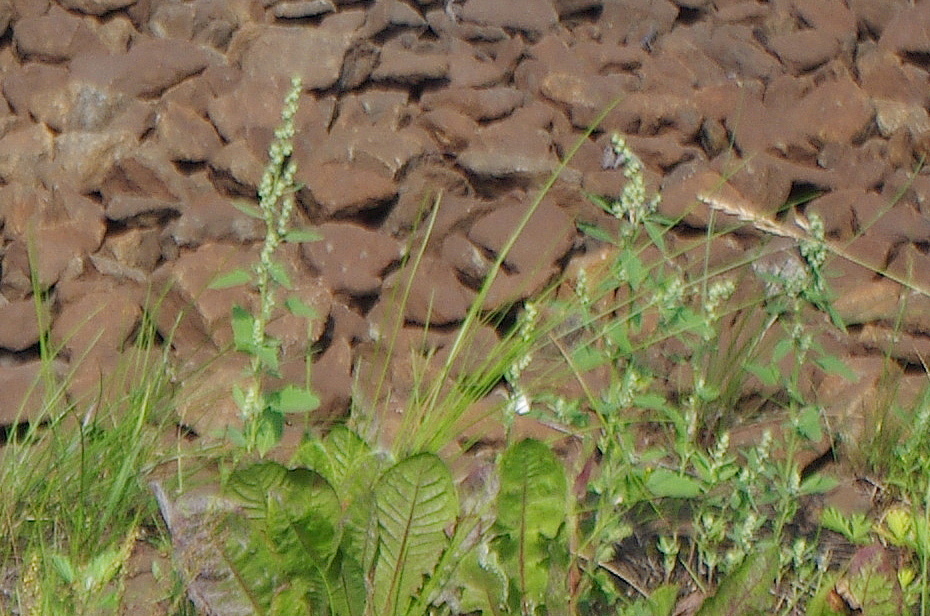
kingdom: Plantae
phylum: Tracheophyta
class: Magnoliopsida
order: Caryophyllales
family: Amaranthaceae
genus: Chenopodium
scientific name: Chenopodium album
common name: Fat-hen
